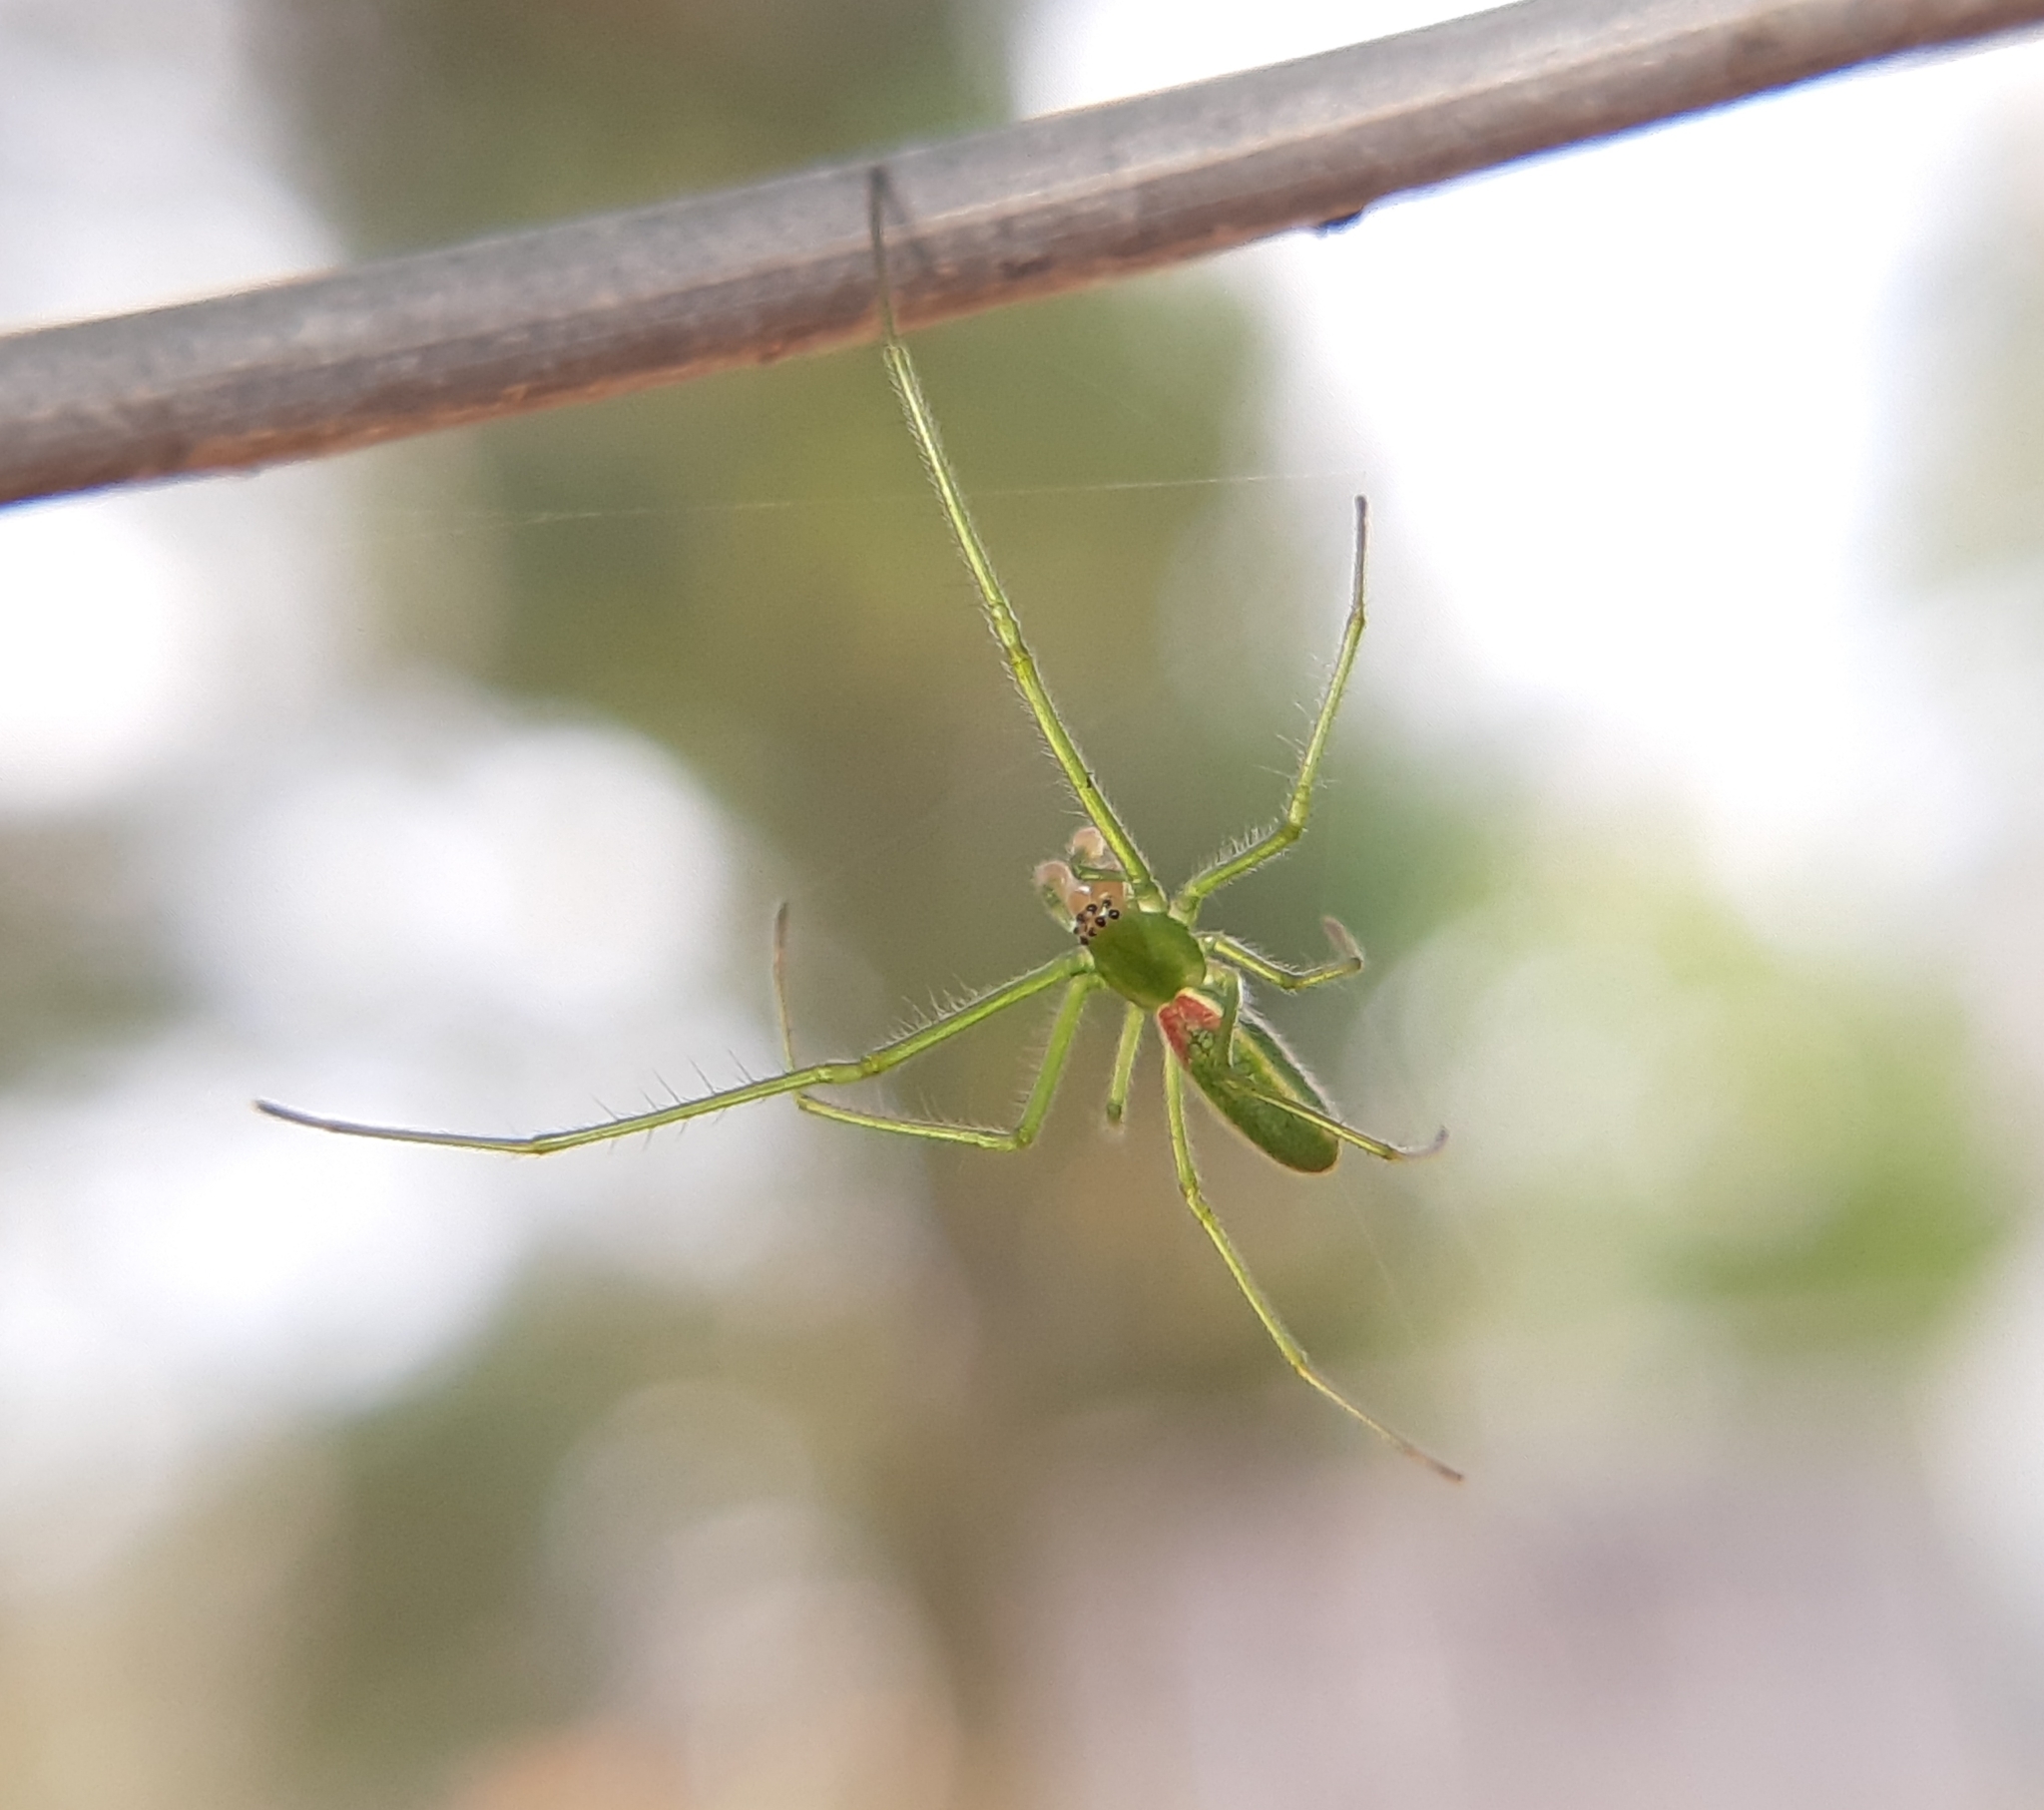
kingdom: Animalia
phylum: Arthropoda
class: Arachnida
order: Araneae
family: Tetragnathidae
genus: Tetragnatha
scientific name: Tetragnatha viridis
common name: Green long-jawed spider
